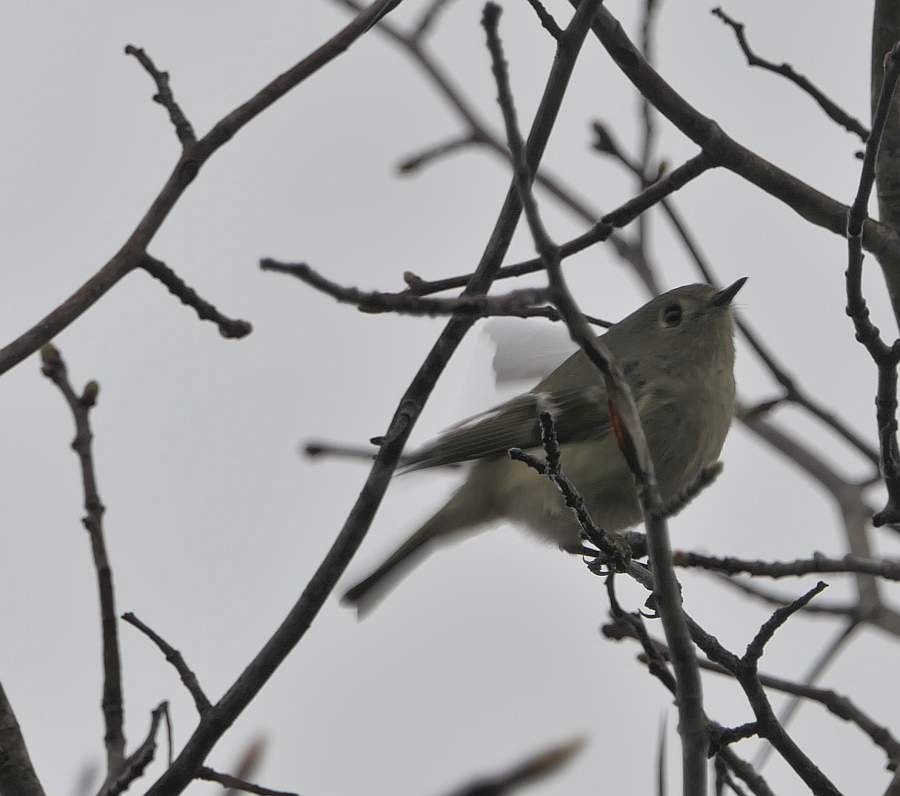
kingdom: Animalia
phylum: Chordata
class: Aves
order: Passeriformes
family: Regulidae
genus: Regulus
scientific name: Regulus calendula
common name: Ruby-crowned kinglet
